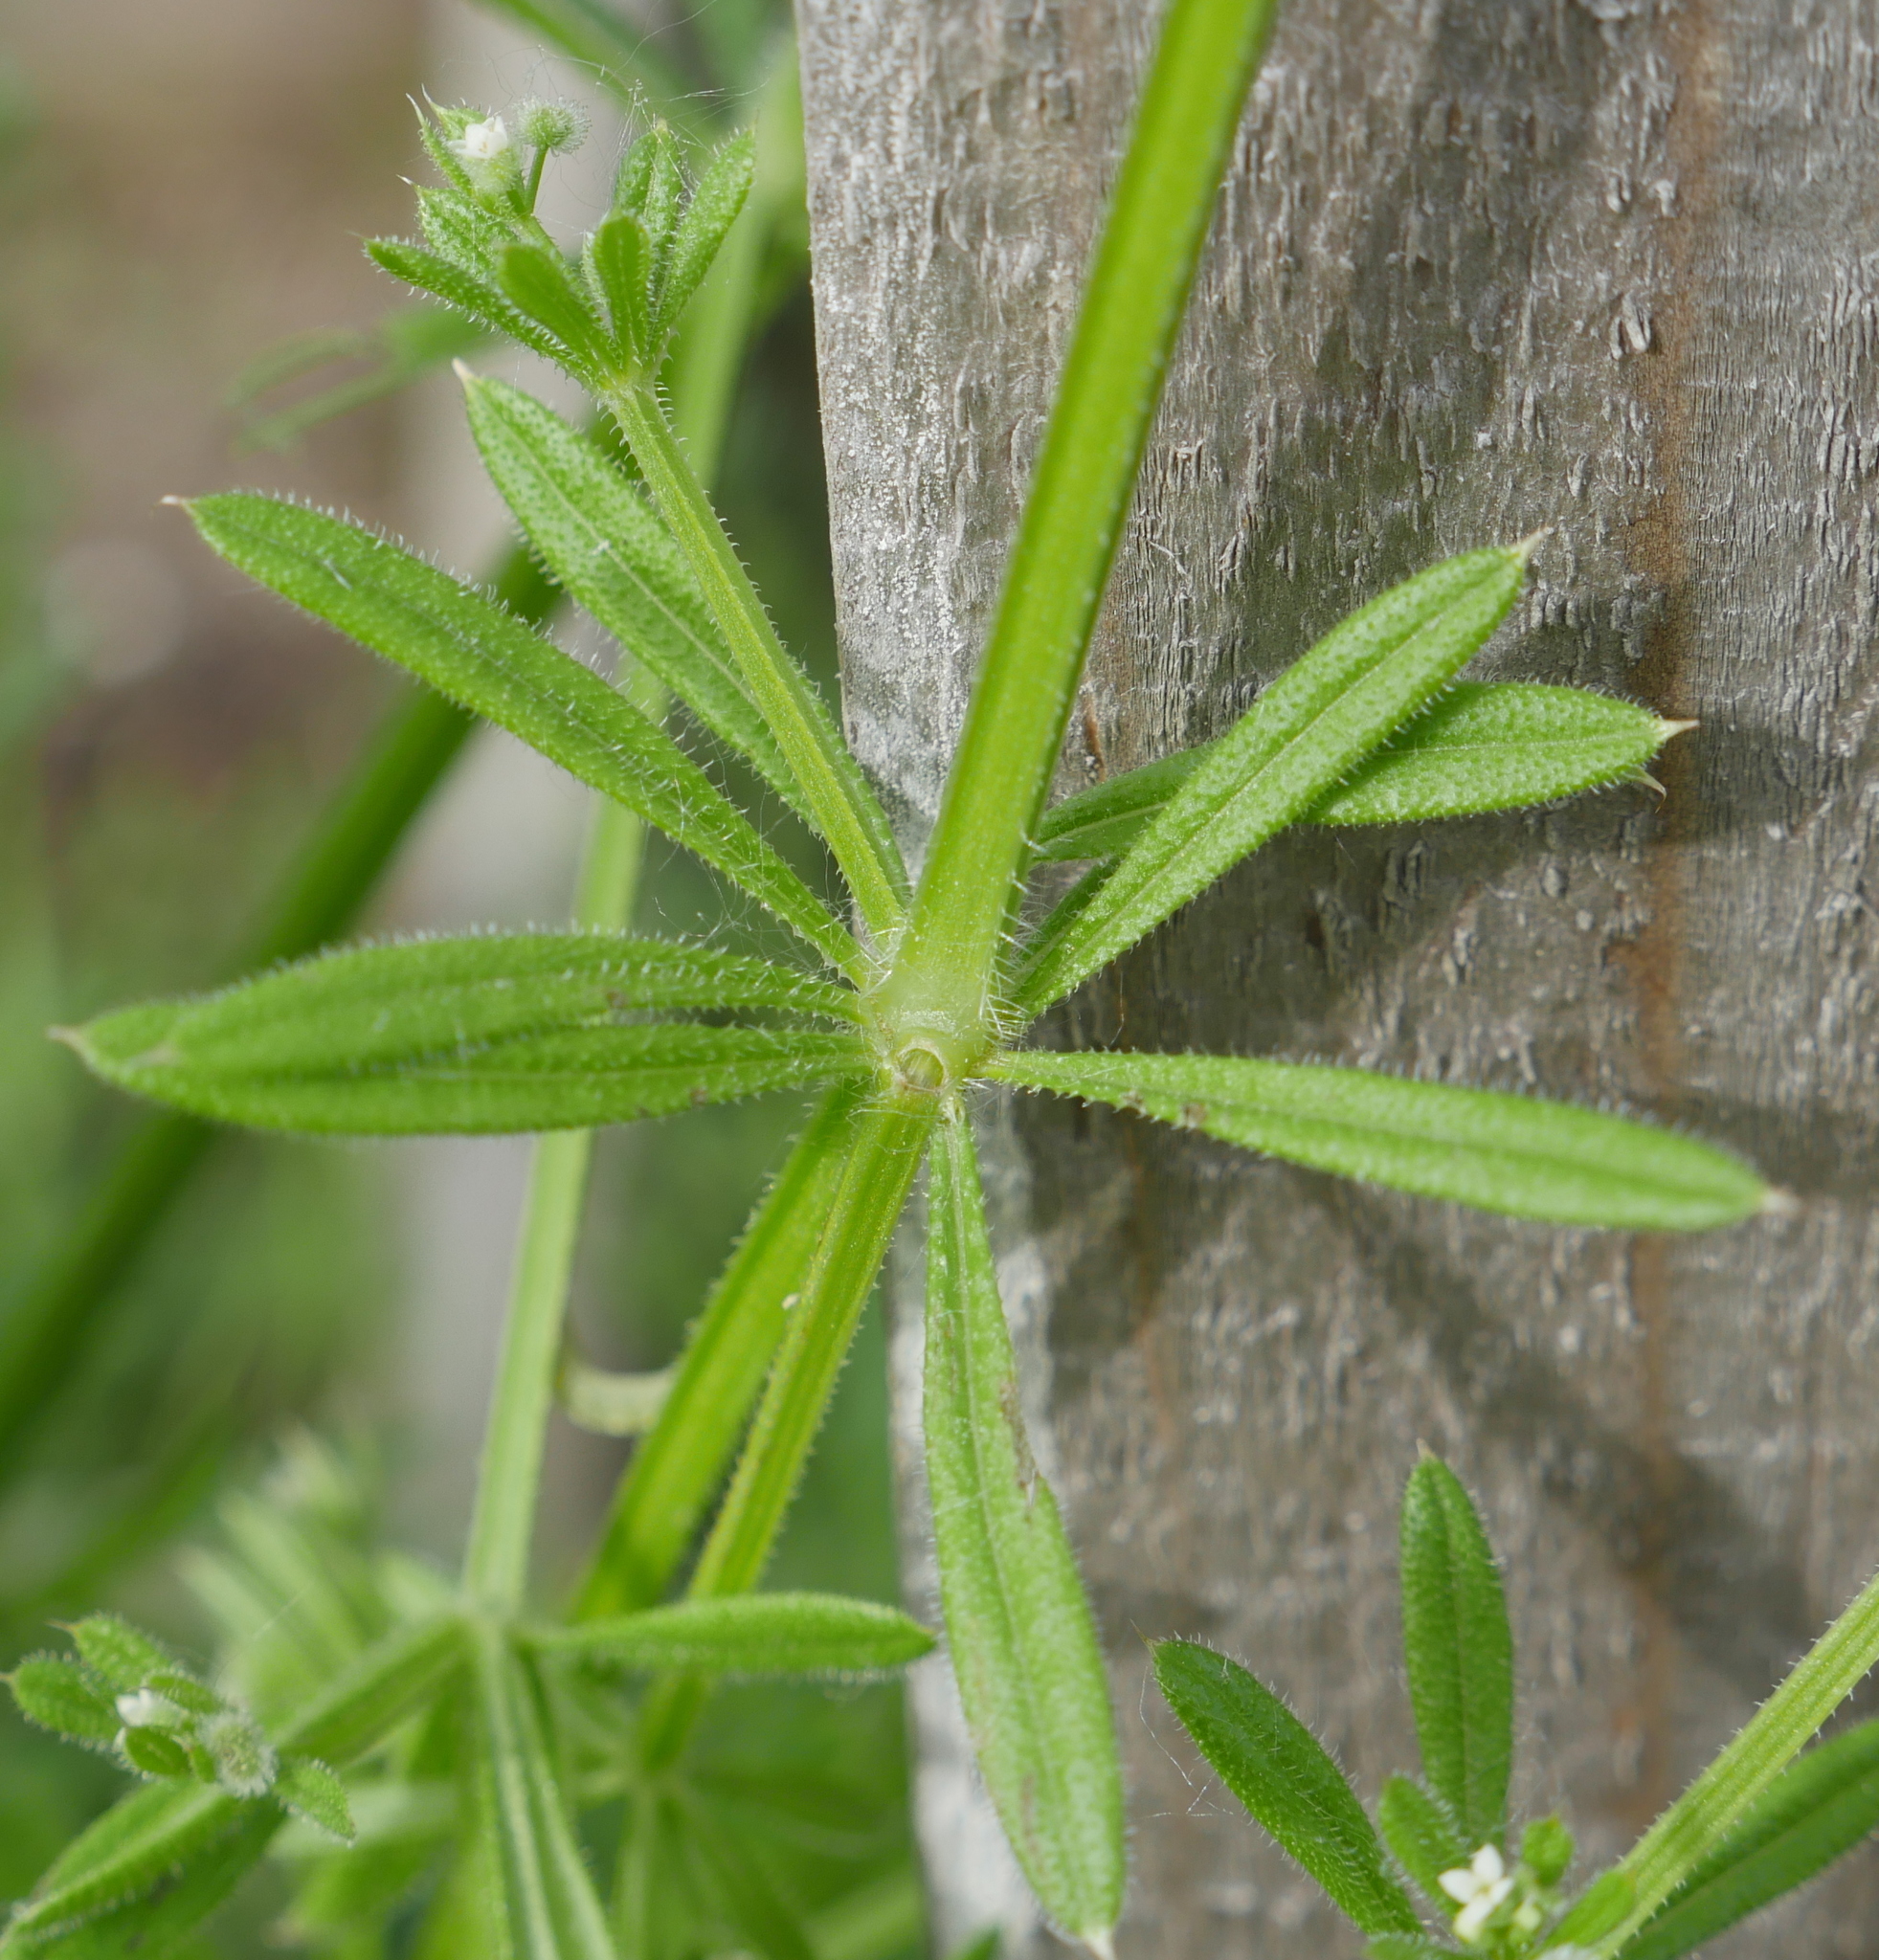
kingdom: Plantae
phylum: Tracheophyta
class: Magnoliopsida
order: Gentianales
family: Rubiaceae
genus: Galium
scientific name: Galium aparine
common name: Cleavers
